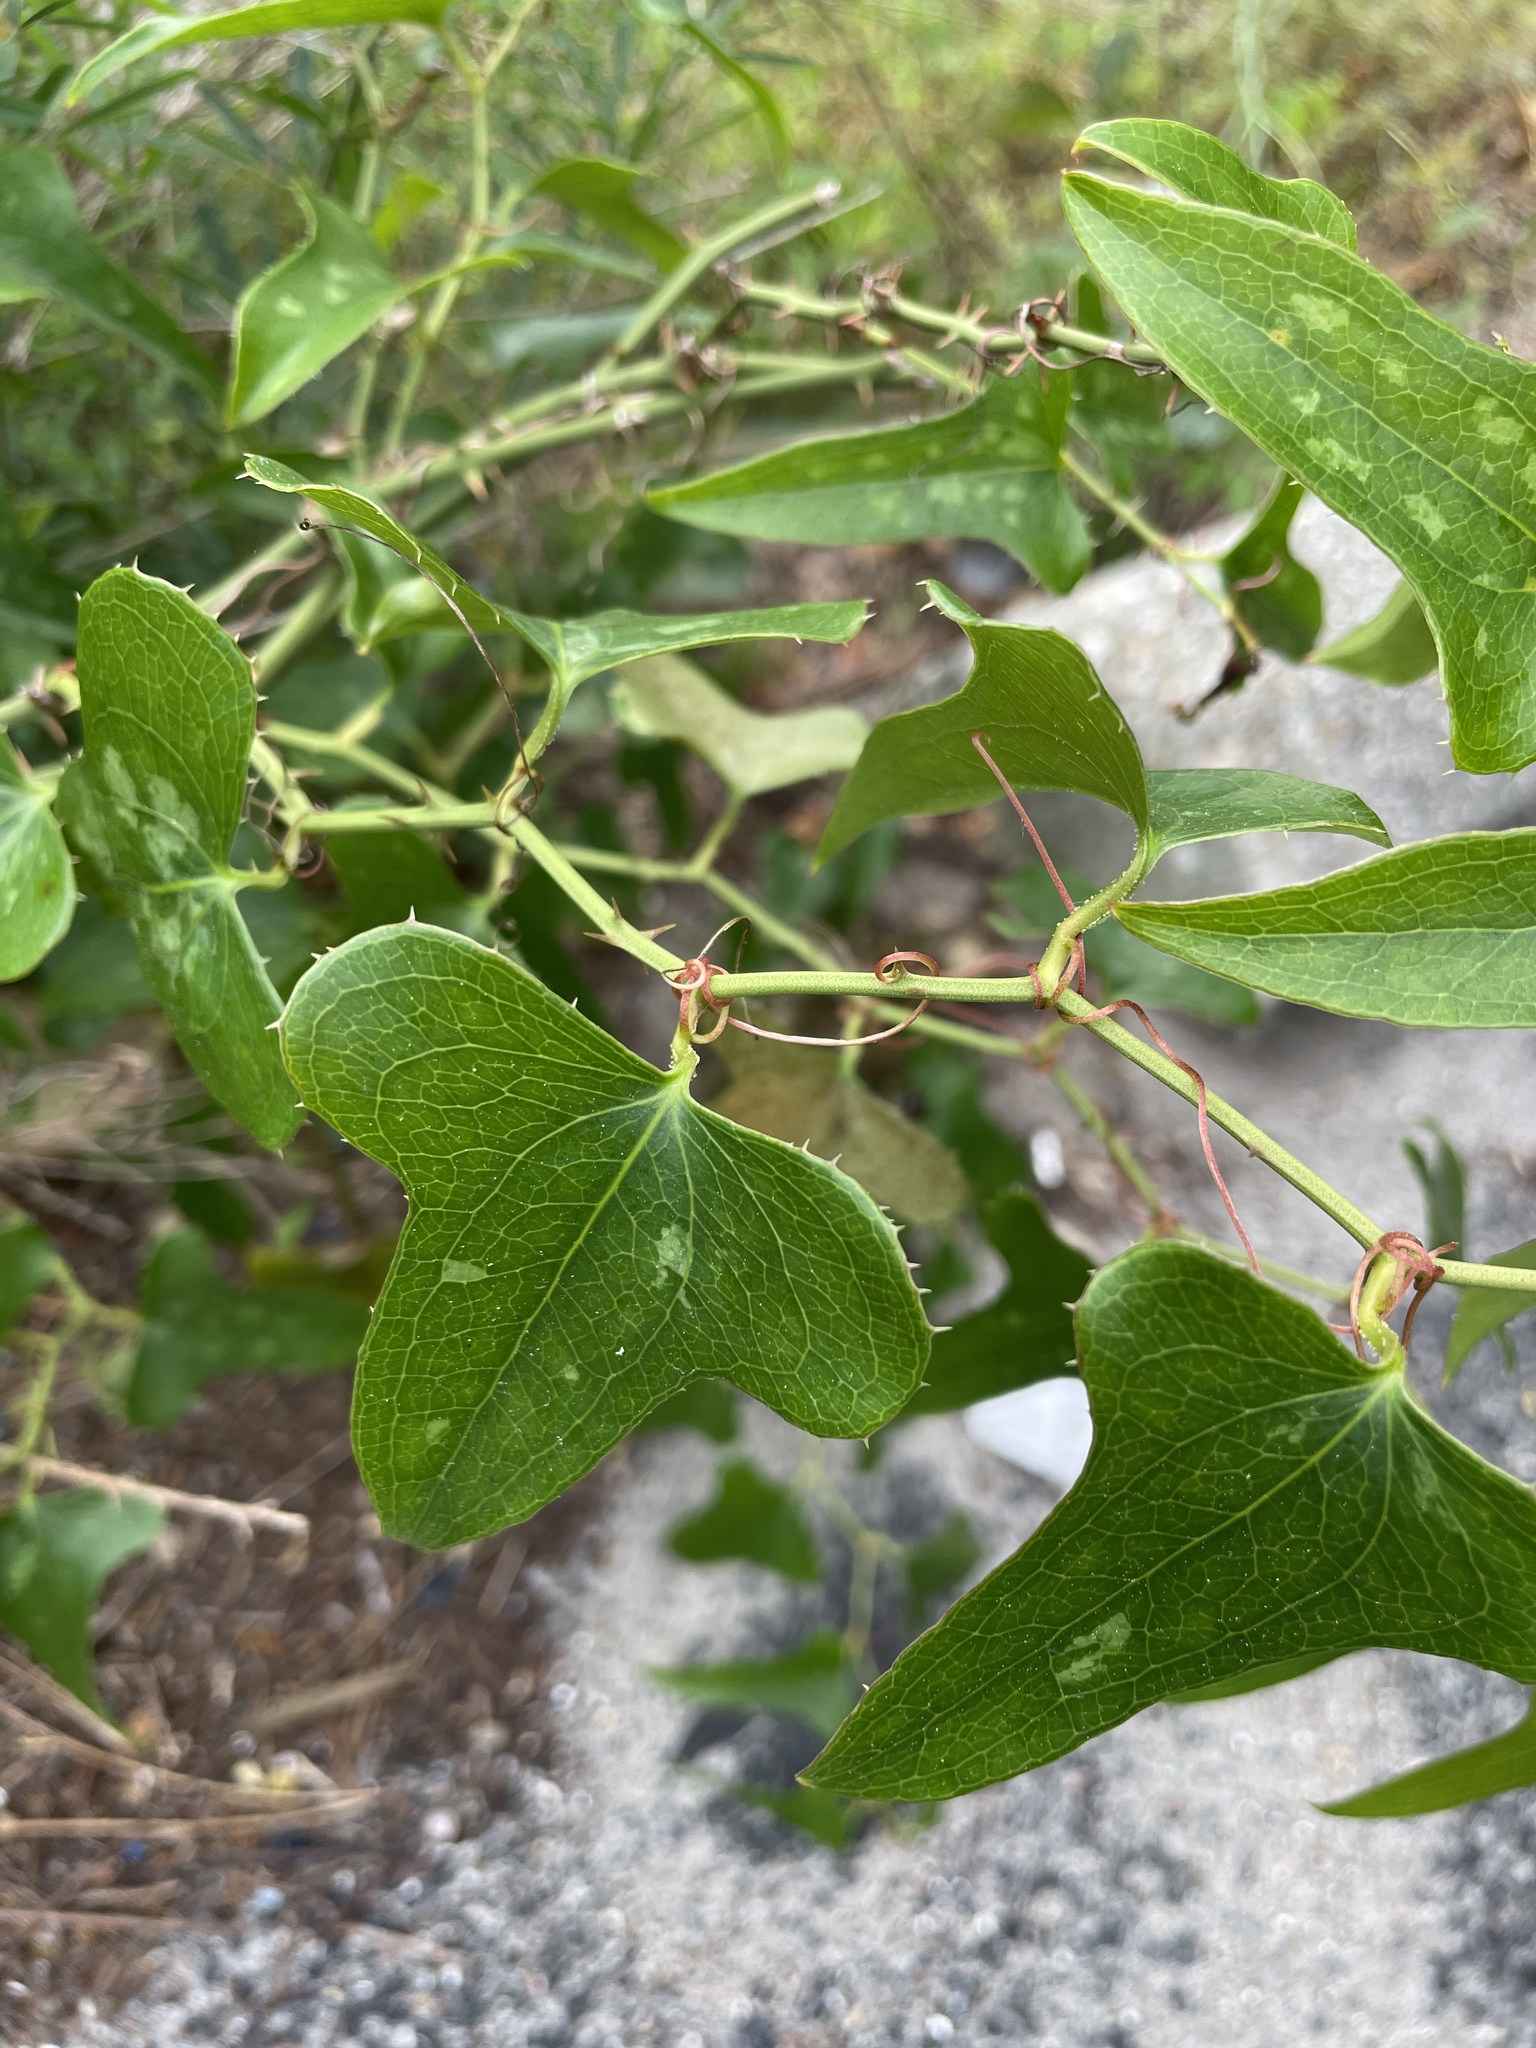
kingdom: Plantae
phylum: Tracheophyta
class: Liliopsida
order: Liliales
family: Smilacaceae
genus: Smilax
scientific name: Smilax bona-nox
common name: Catbrier
